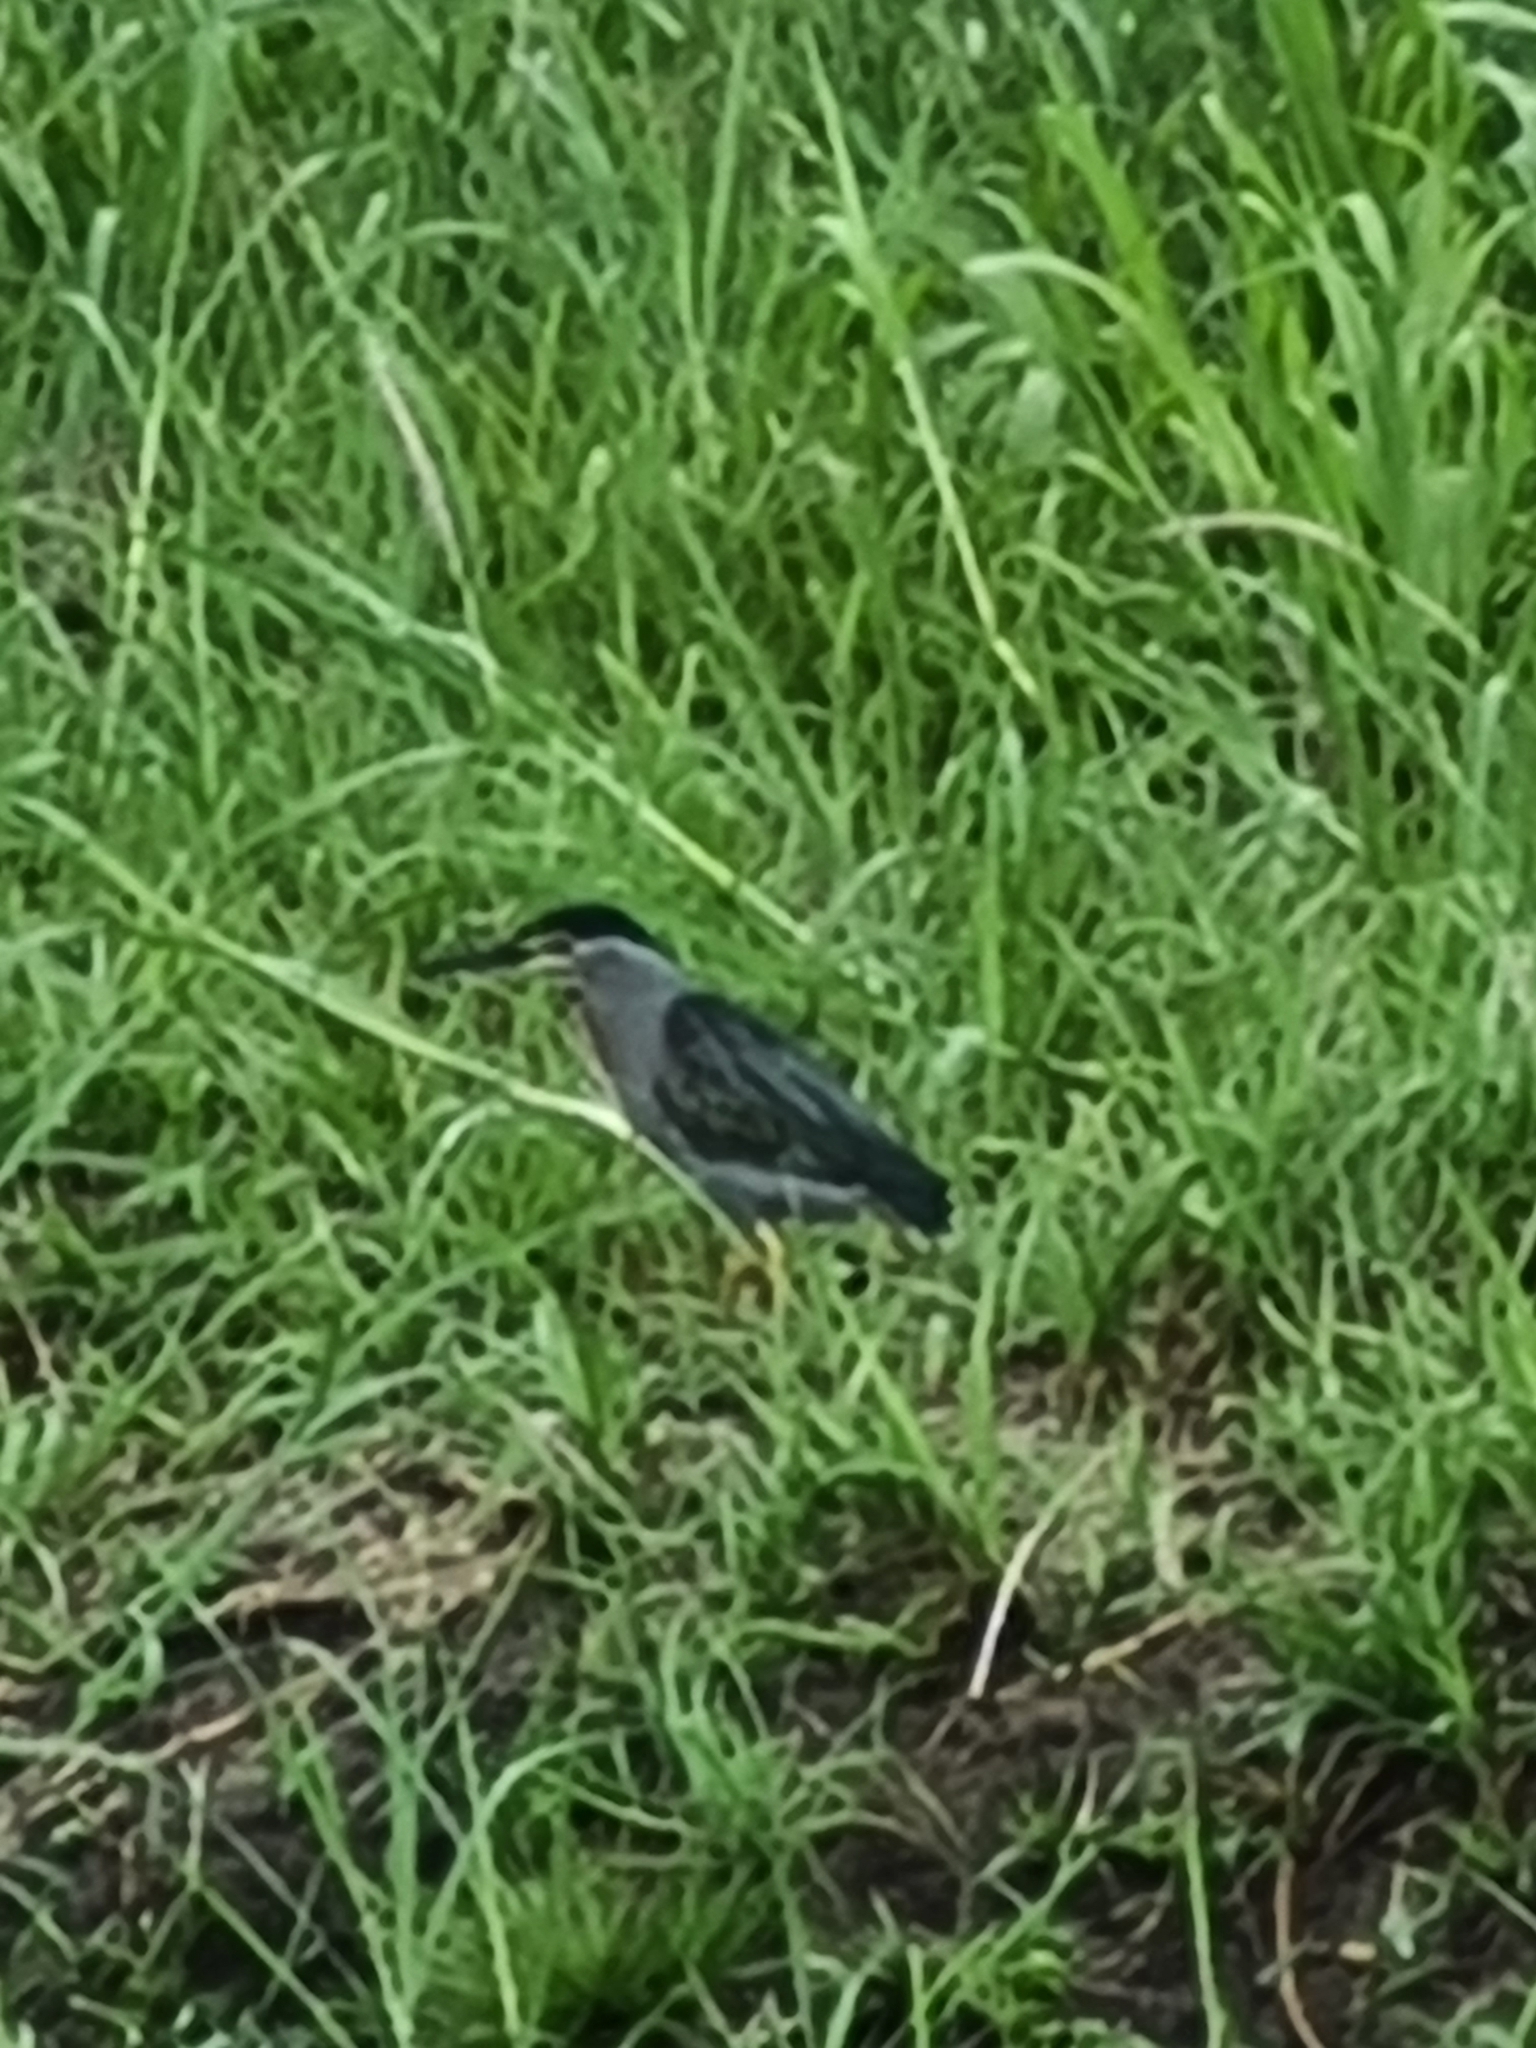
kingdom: Animalia
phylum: Chordata
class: Aves
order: Pelecaniformes
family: Ardeidae
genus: Butorides
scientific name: Butorides striata
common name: Striated heron
